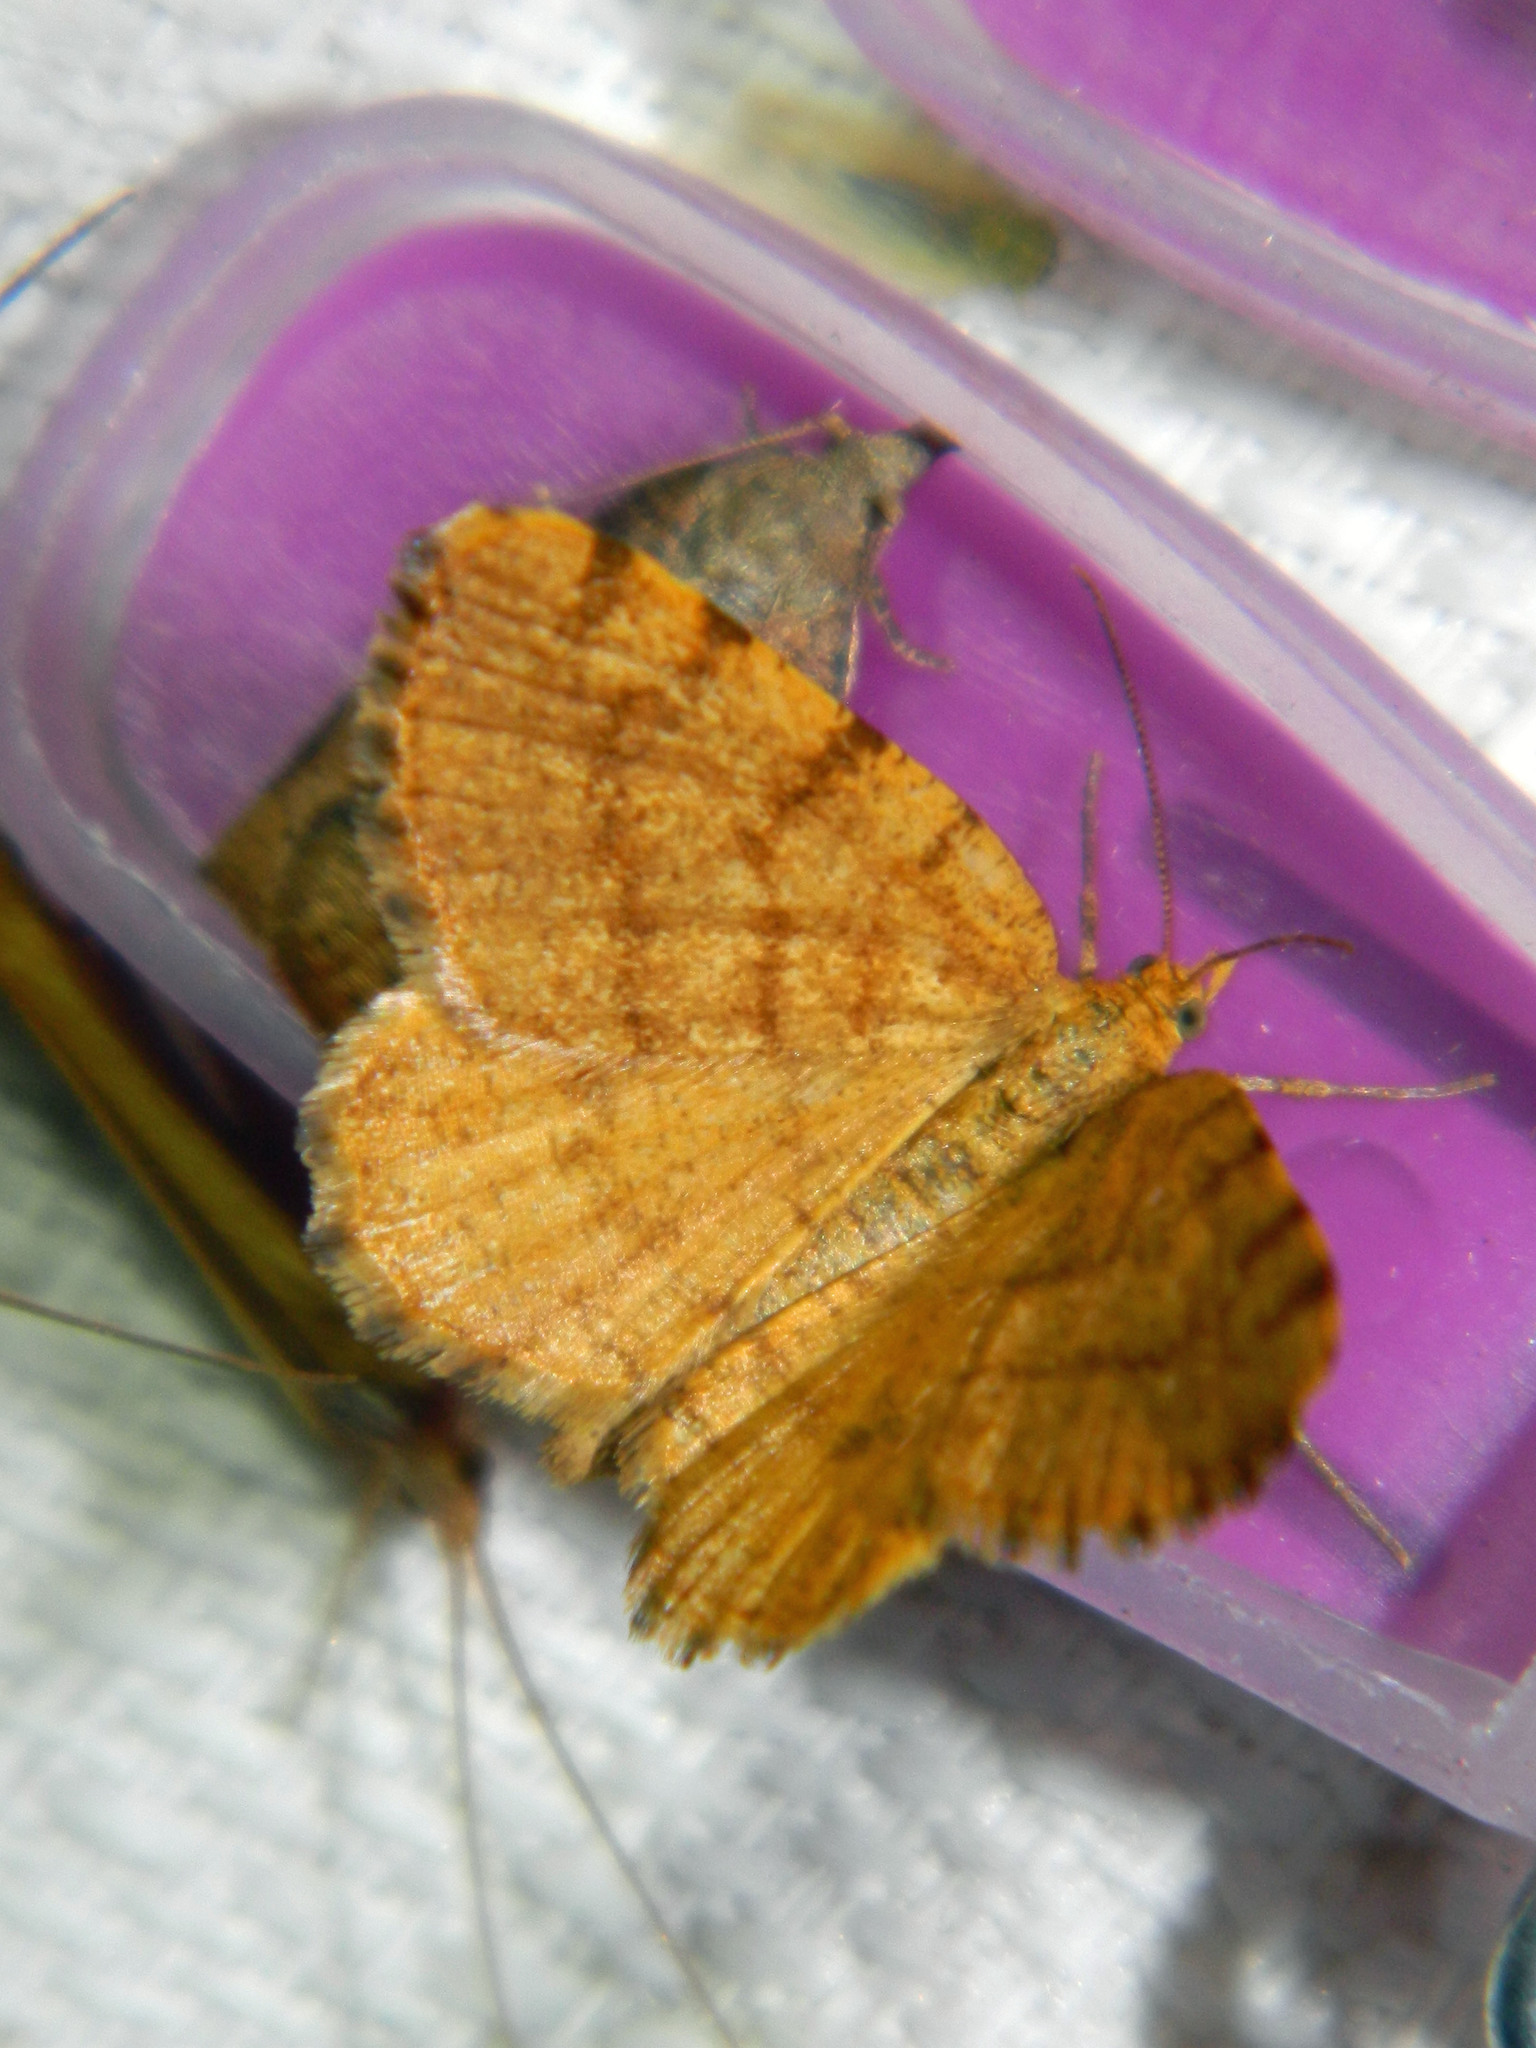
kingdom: Animalia
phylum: Arthropoda
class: Insecta
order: Lepidoptera
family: Geometridae
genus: Macaria
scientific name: Macaria brunneata
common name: Rannoch looper
